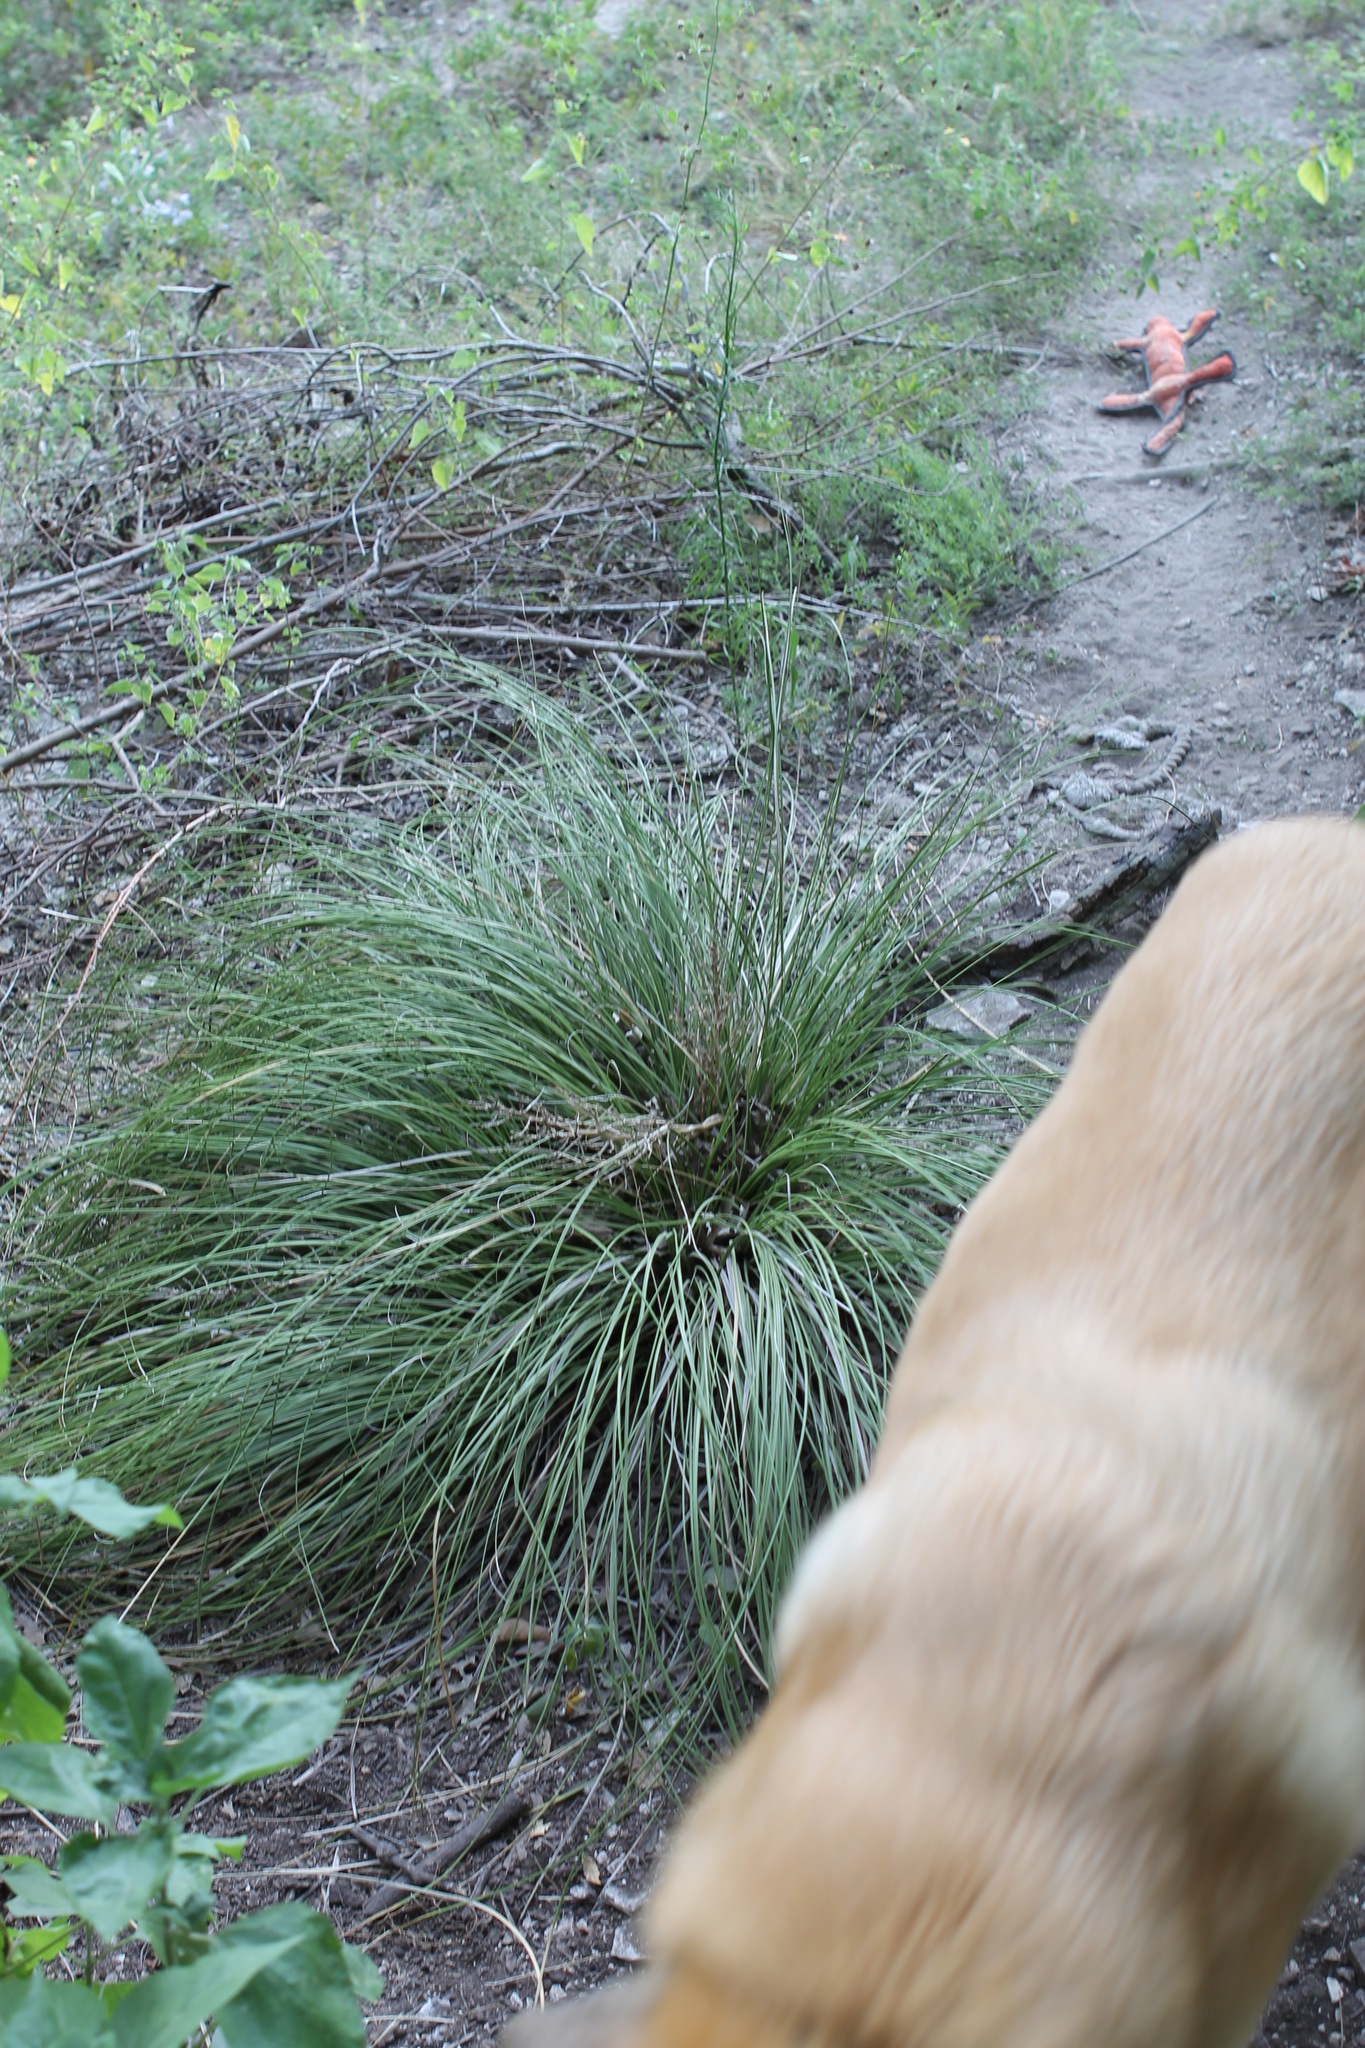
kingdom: Plantae
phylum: Tracheophyta
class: Liliopsida
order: Asparagales
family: Asparagaceae
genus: Nolina
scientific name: Nolina texana
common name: Texas sacahuiste
